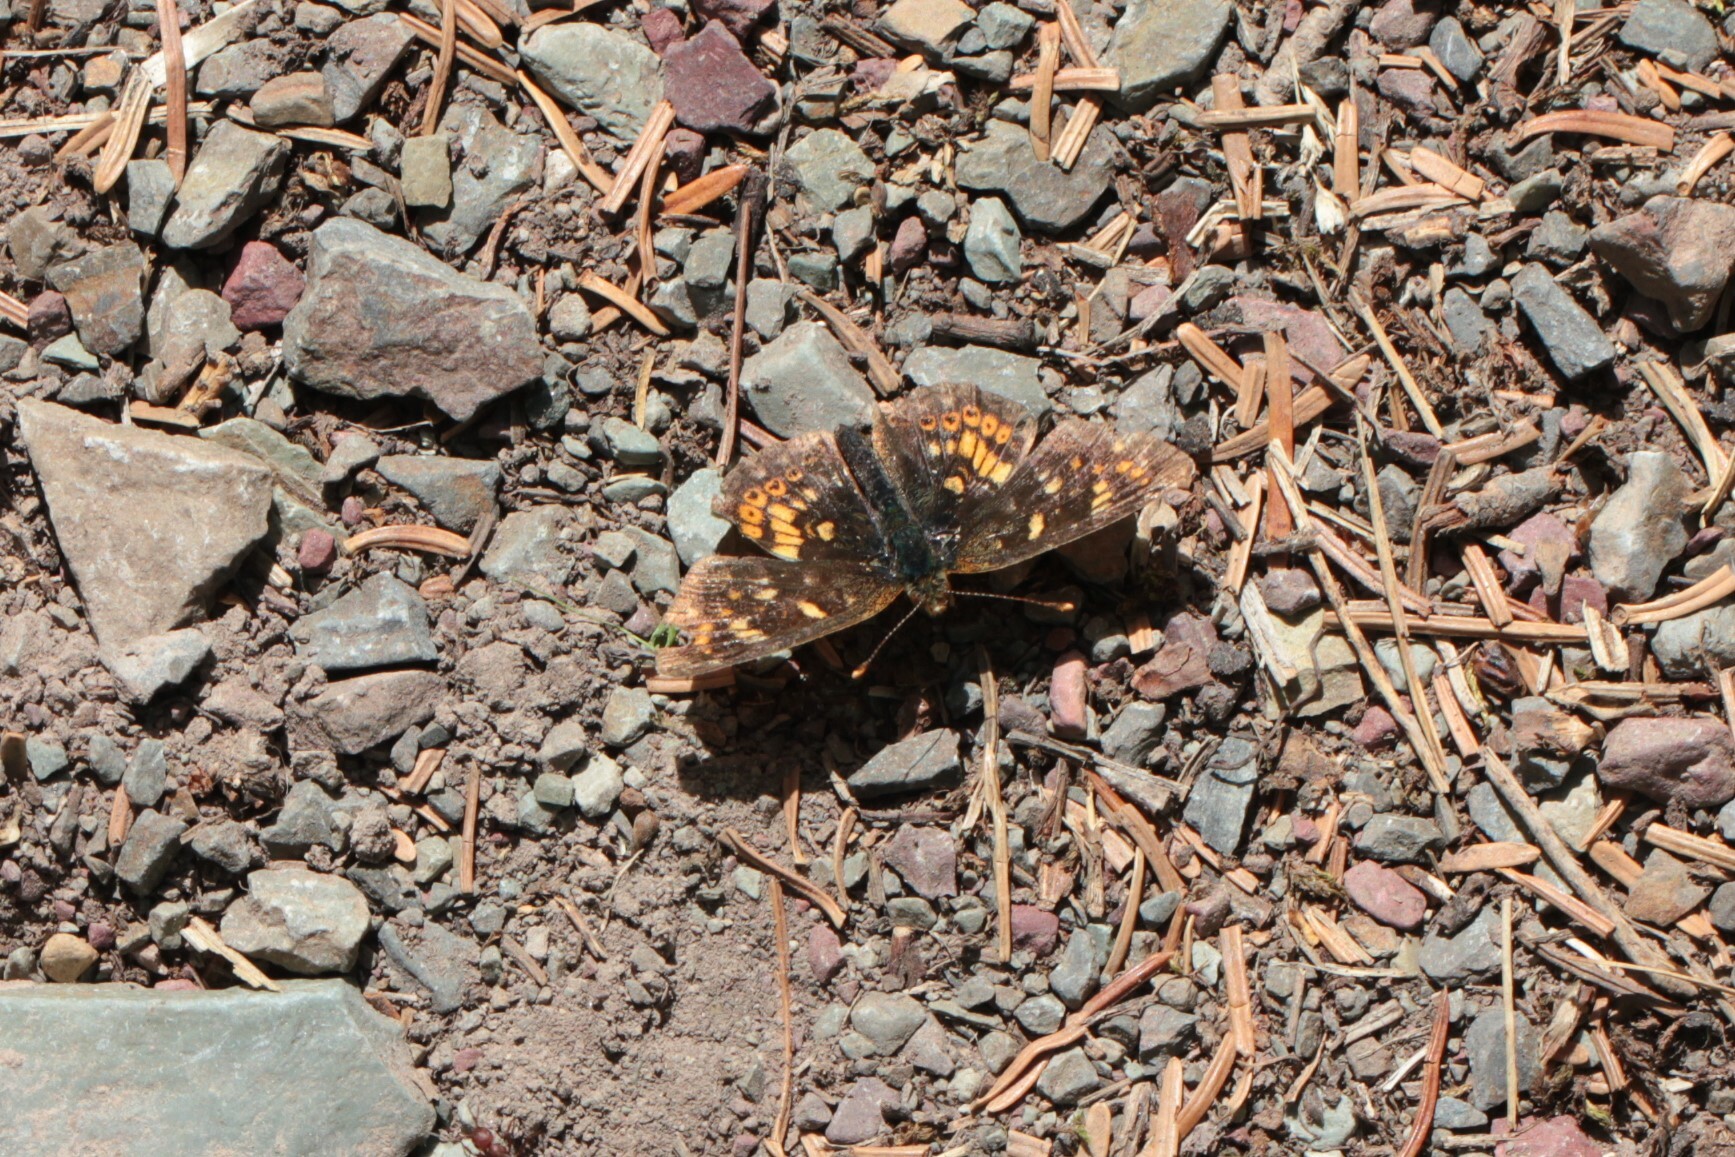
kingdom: Animalia
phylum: Arthropoda
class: Insecta
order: Lepidoptera
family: Nymphalidae
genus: Phyciodes
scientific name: Phyciodes tharos
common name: Pearl crescent
